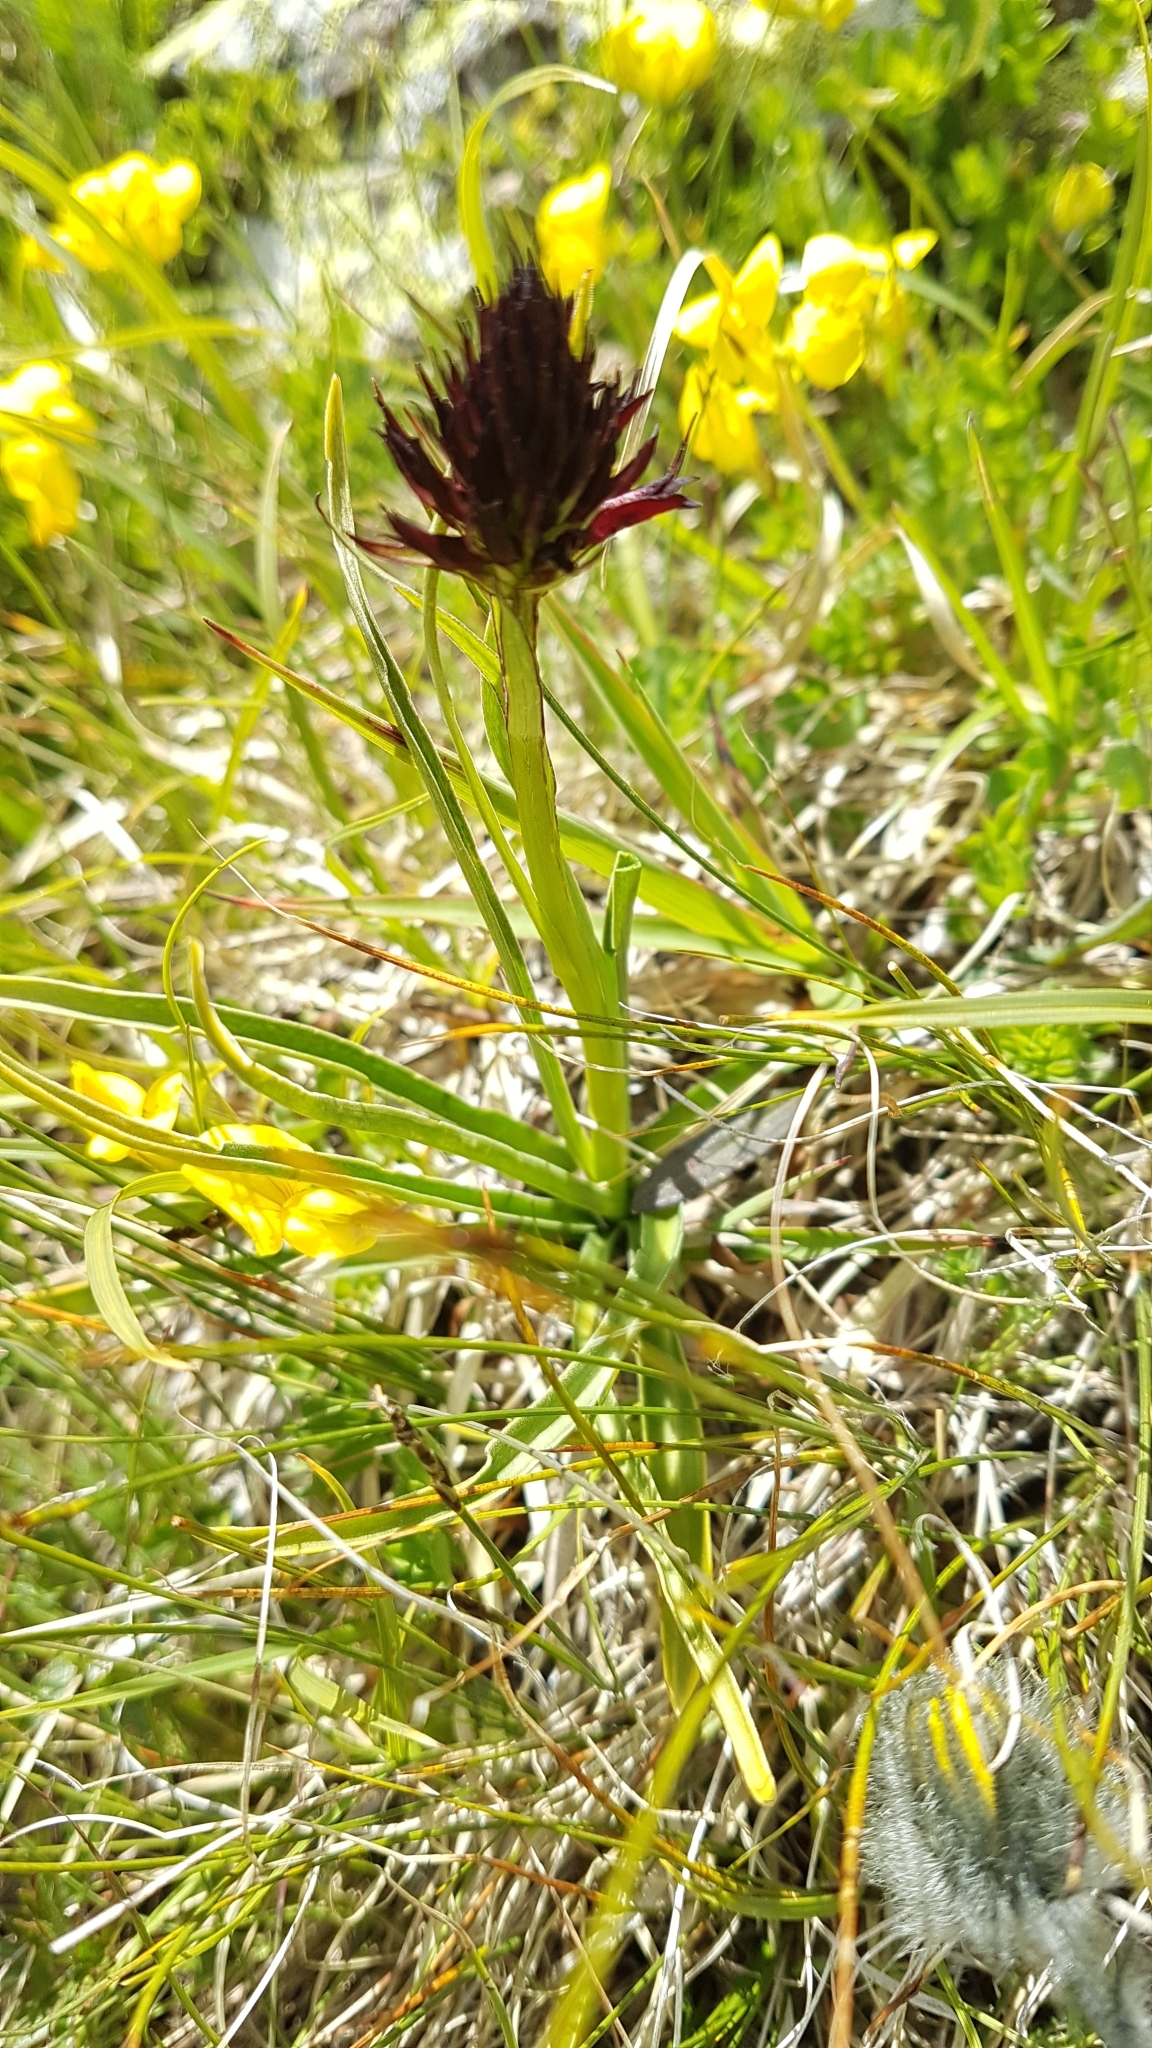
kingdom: Plantae
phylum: Tracheophyta
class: Liliopsida
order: Asparagales
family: Orchidaceae
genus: Gymnadenia
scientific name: Gymnadenia rhellicani
